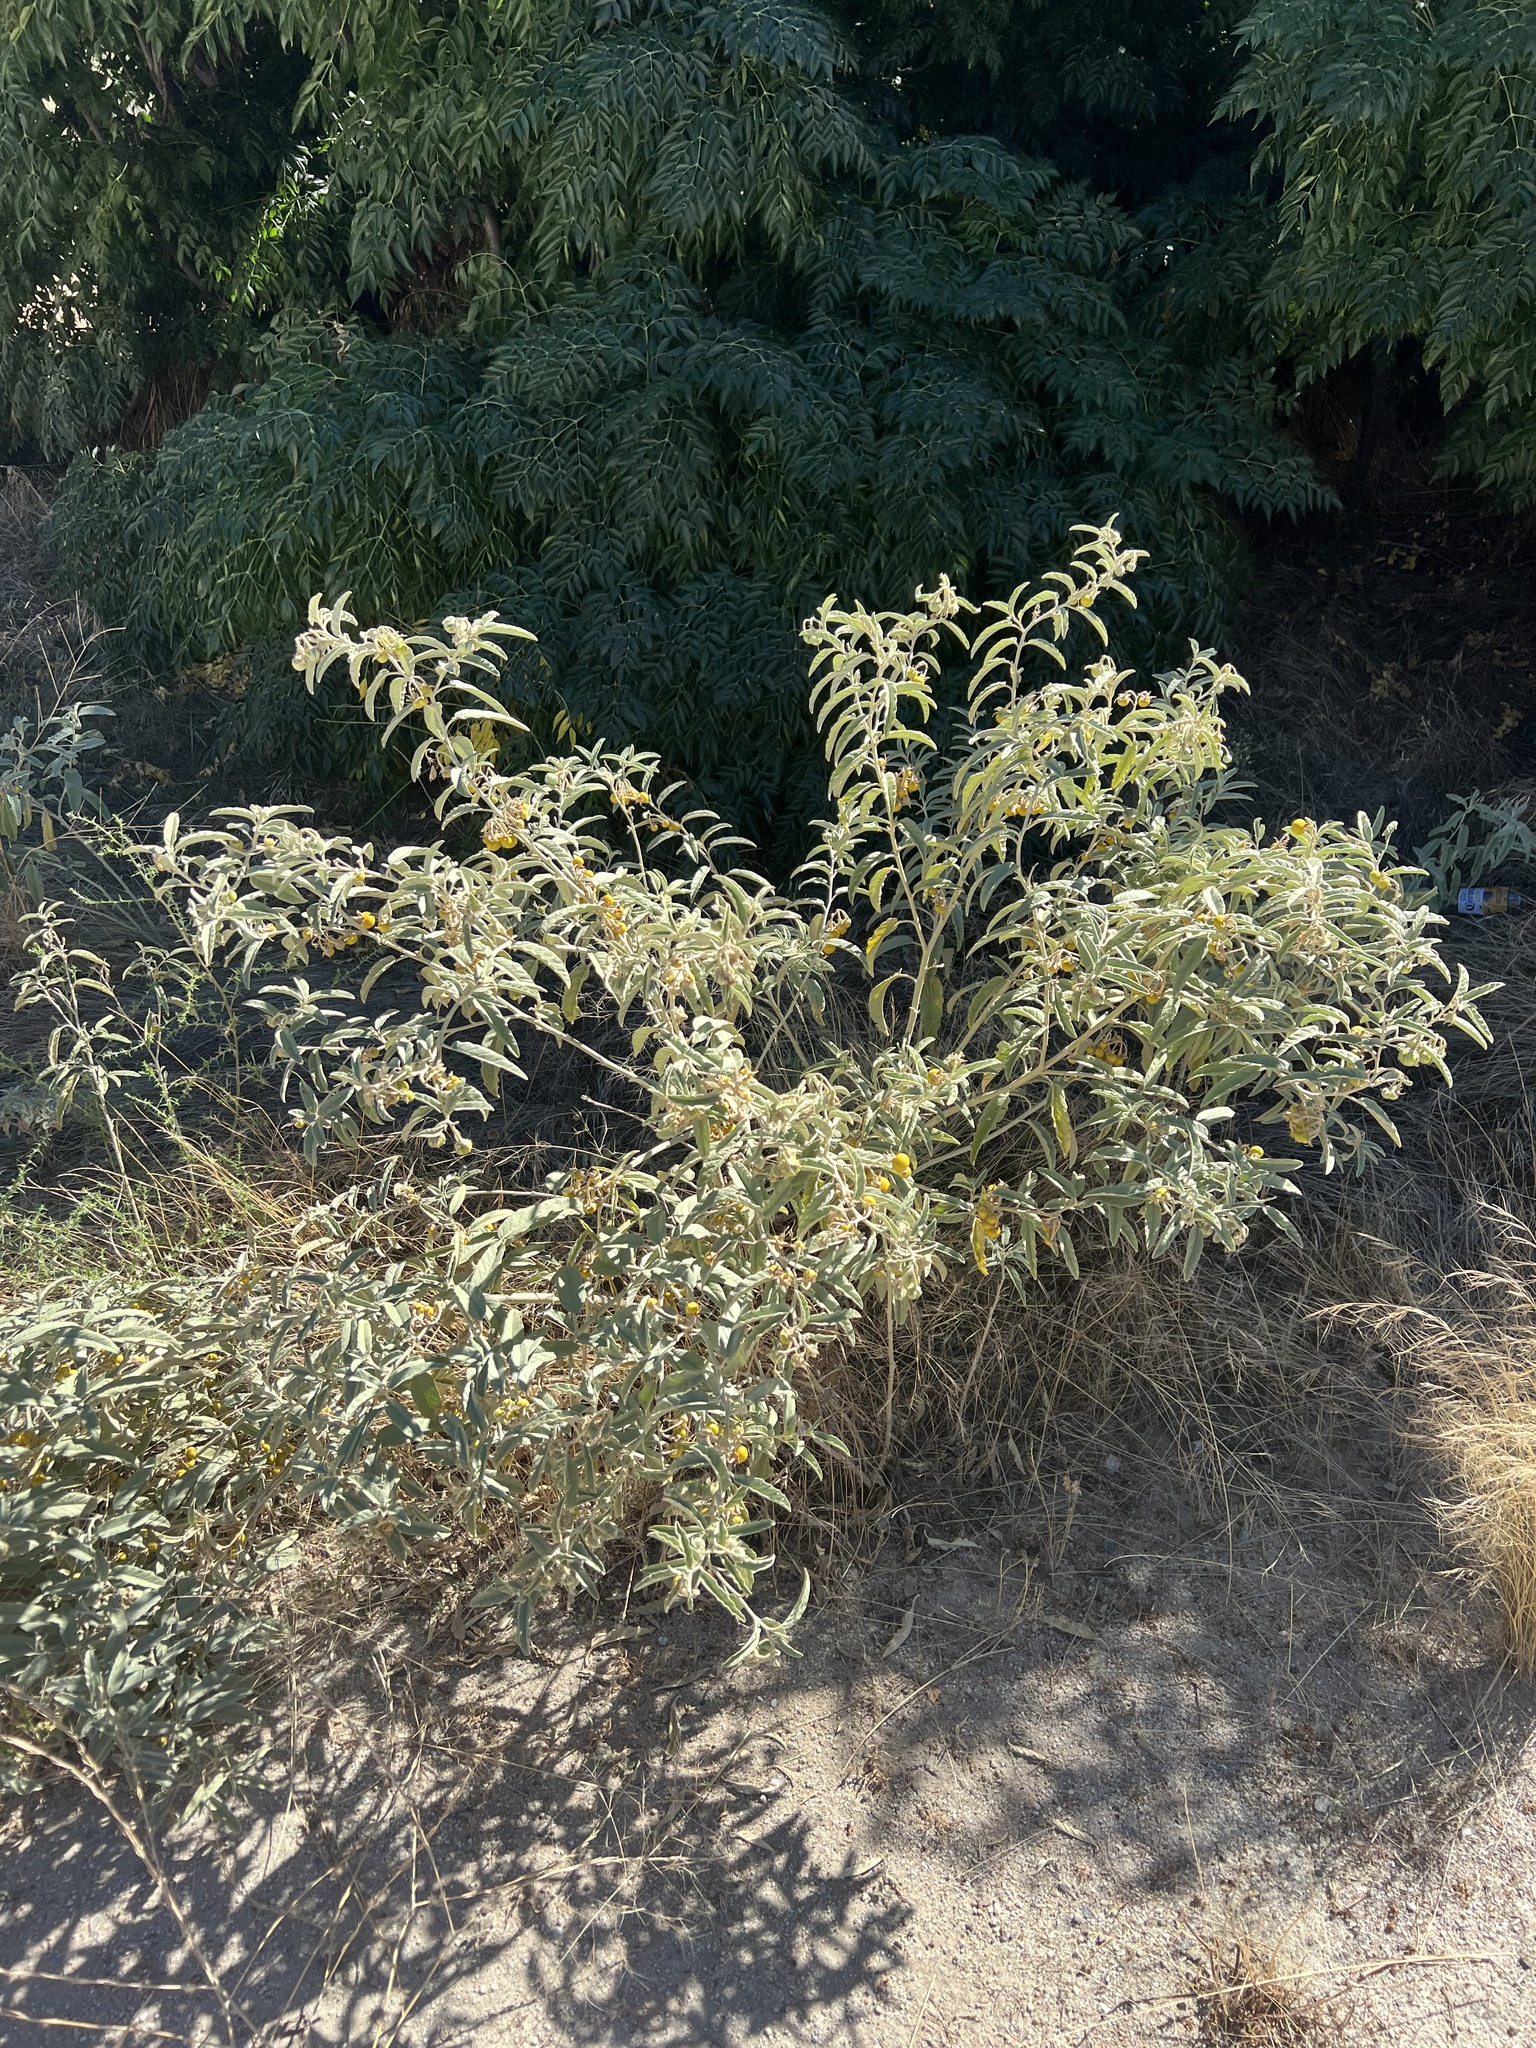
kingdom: Plantae
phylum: Tracheophyta
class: Magnoliopsida
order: Solanales
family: Solanaceae
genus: Solanum
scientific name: Solanum elaeagnifolium
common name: Silverleaf nightshade
